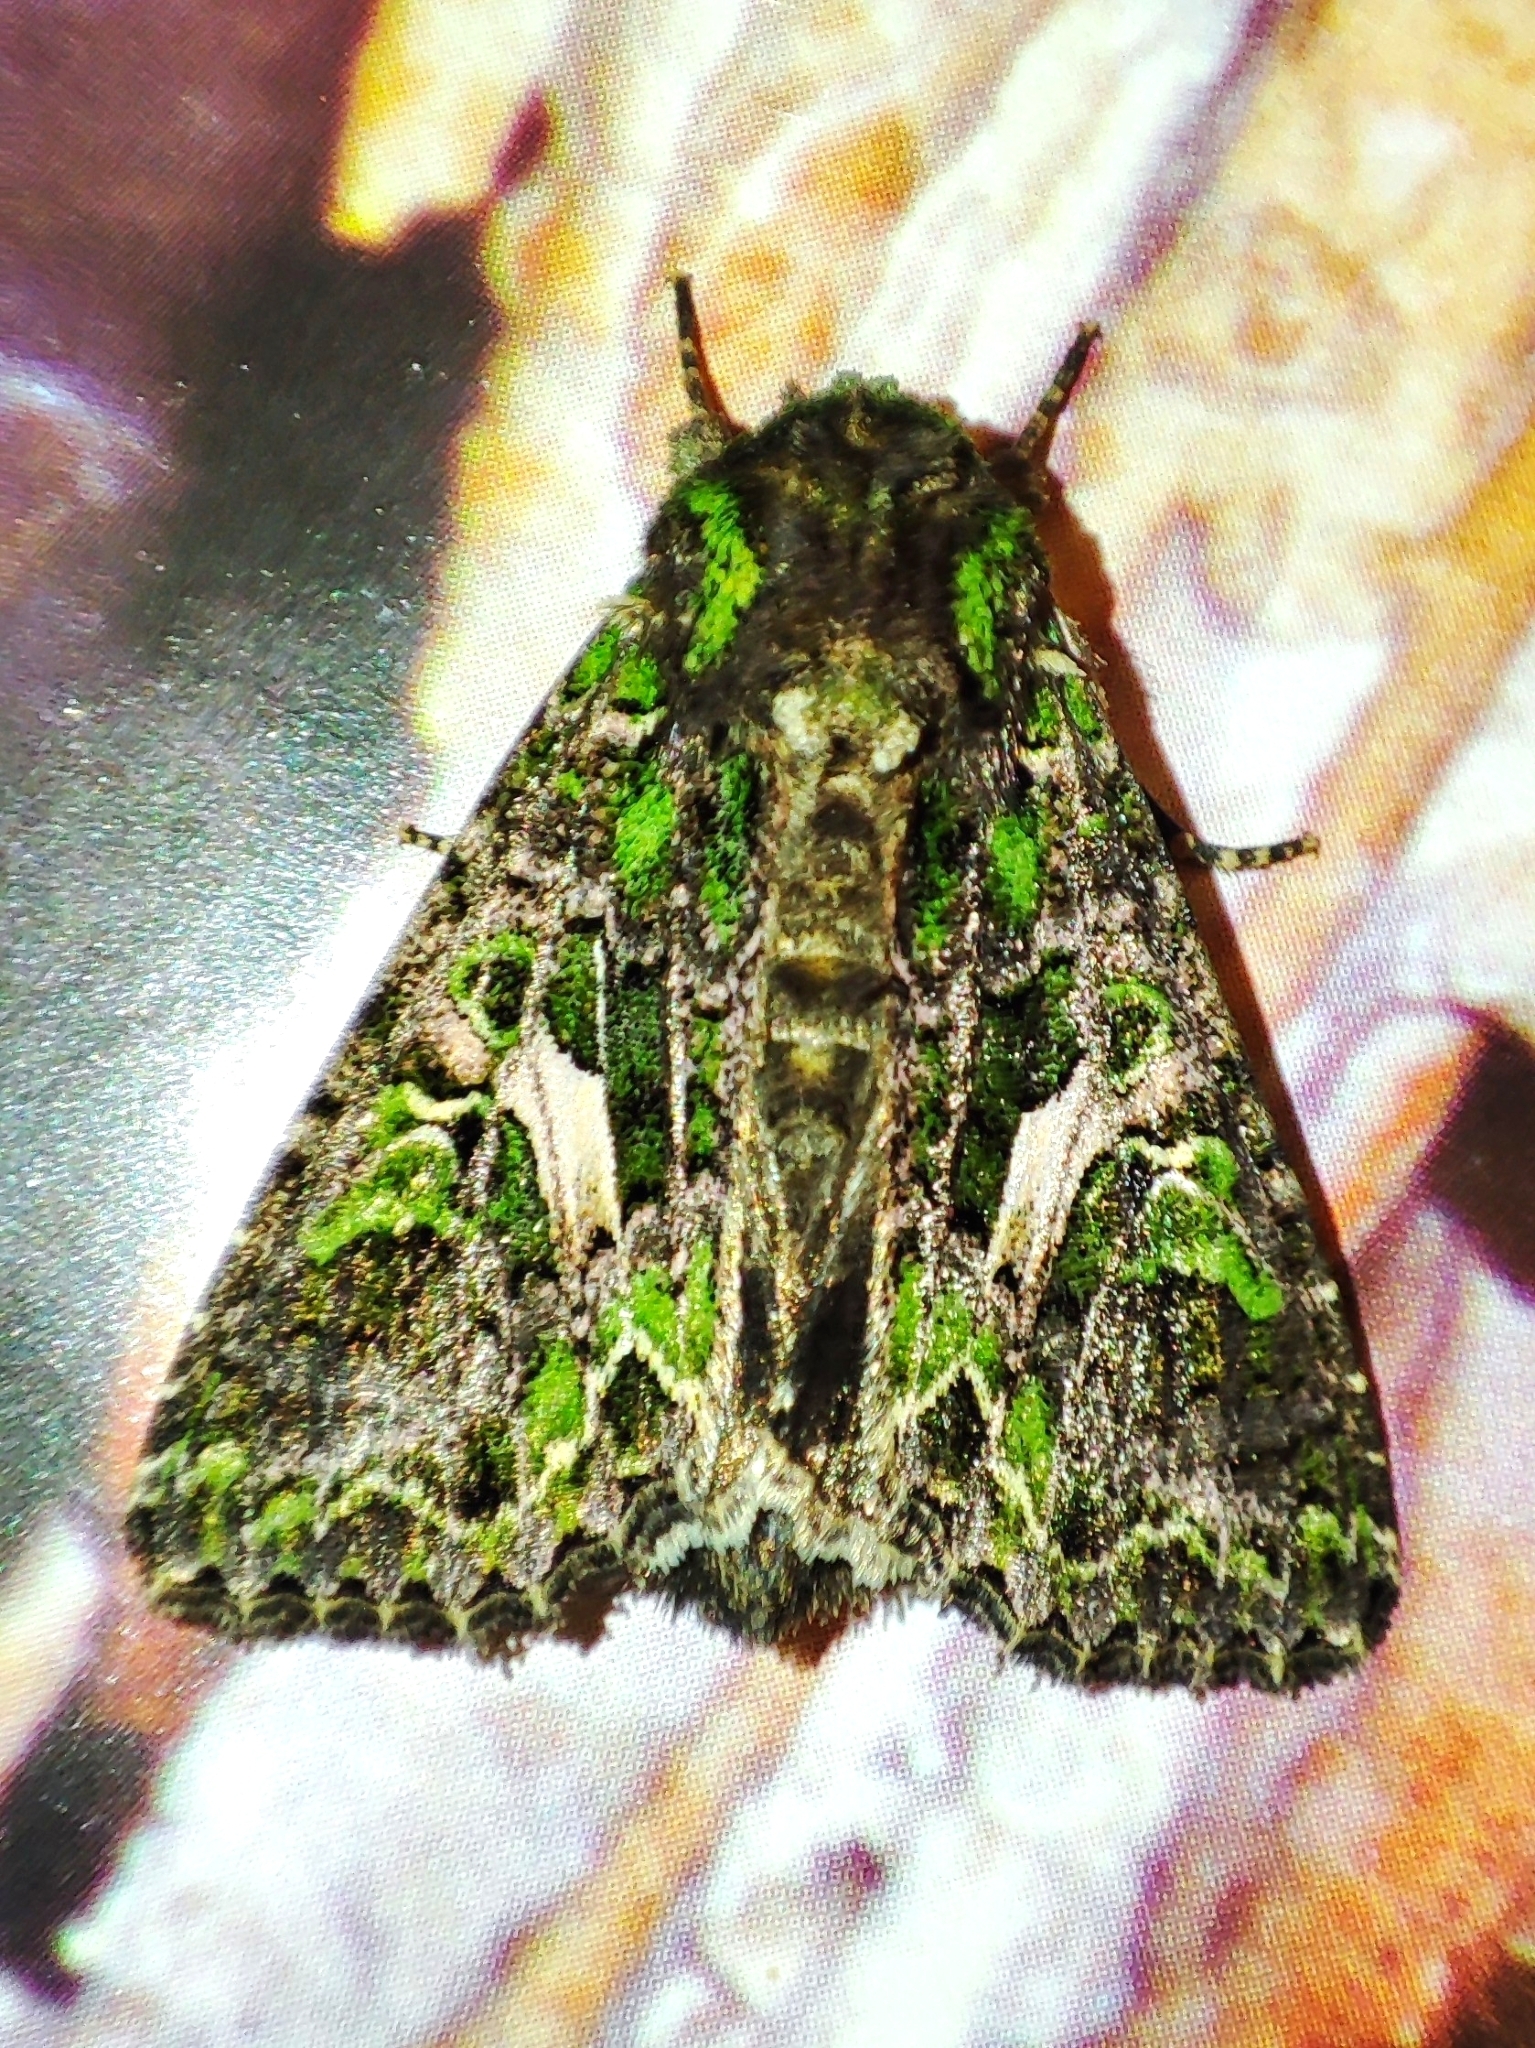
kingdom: Animalia
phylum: Arthropoda
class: Insecta
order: Lepidoptera
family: Noctuidae
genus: Trachea
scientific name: Trachea atriplicis
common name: Orache moth
